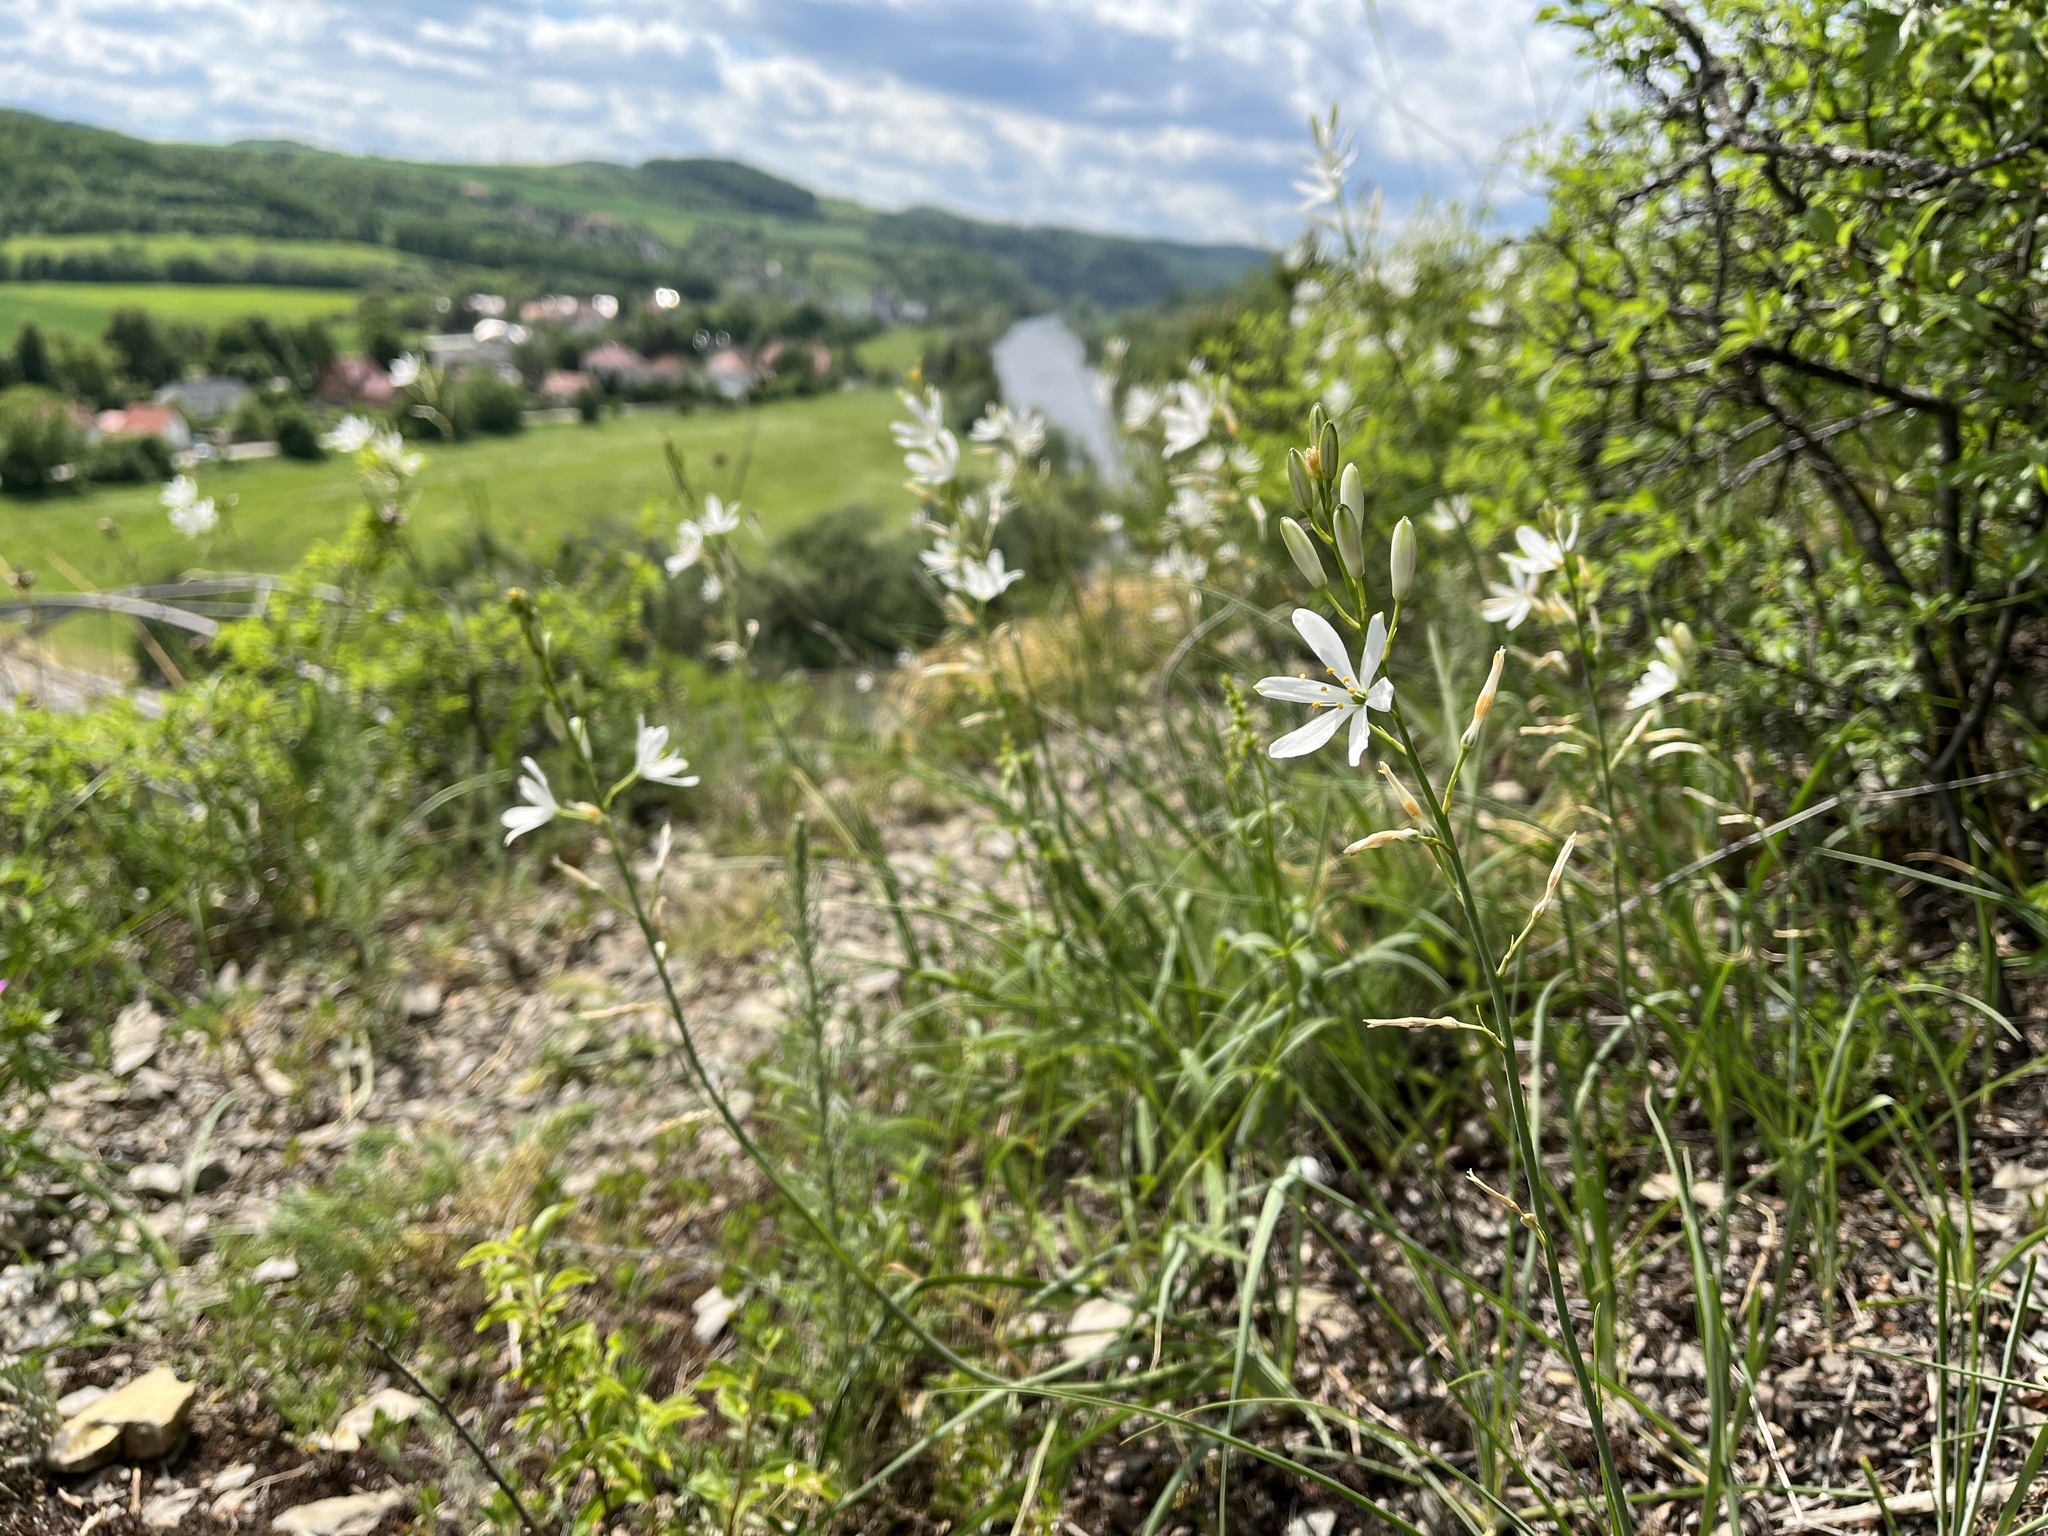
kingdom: Plantae
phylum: Tracheophyta
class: Liliopsida
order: Asparagales
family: Asparagaceae
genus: Anthericum
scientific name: Anthericum liliago
